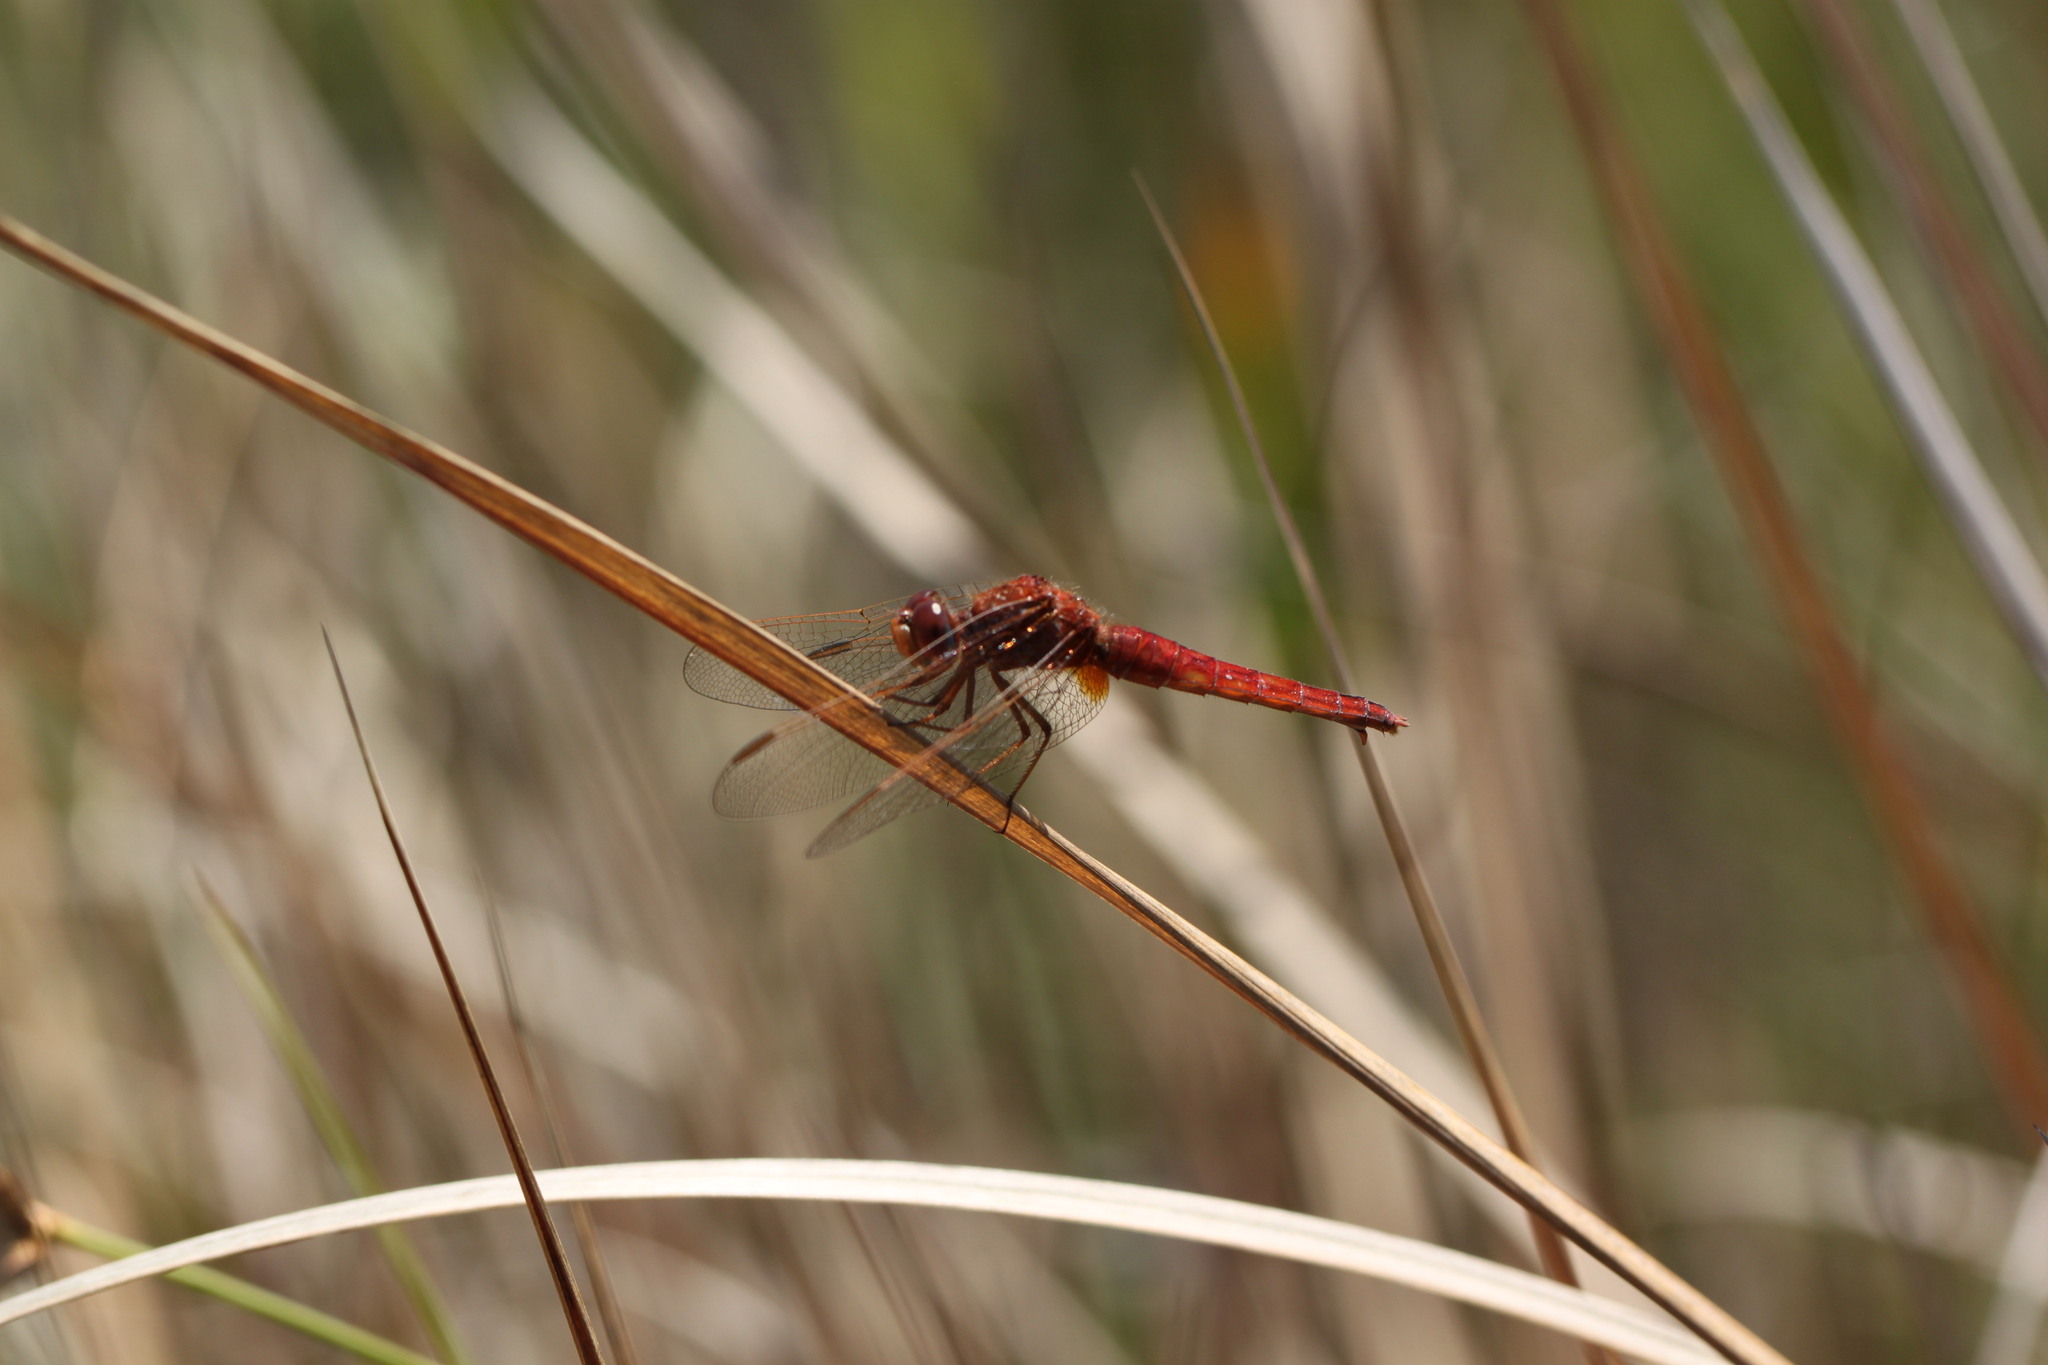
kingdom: Animalia
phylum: Arthropoda
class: Insecta
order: Odonata
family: Libellulidae
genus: Crocothemis
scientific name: Crocothemis erythraea
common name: Scarlet dragonfly
